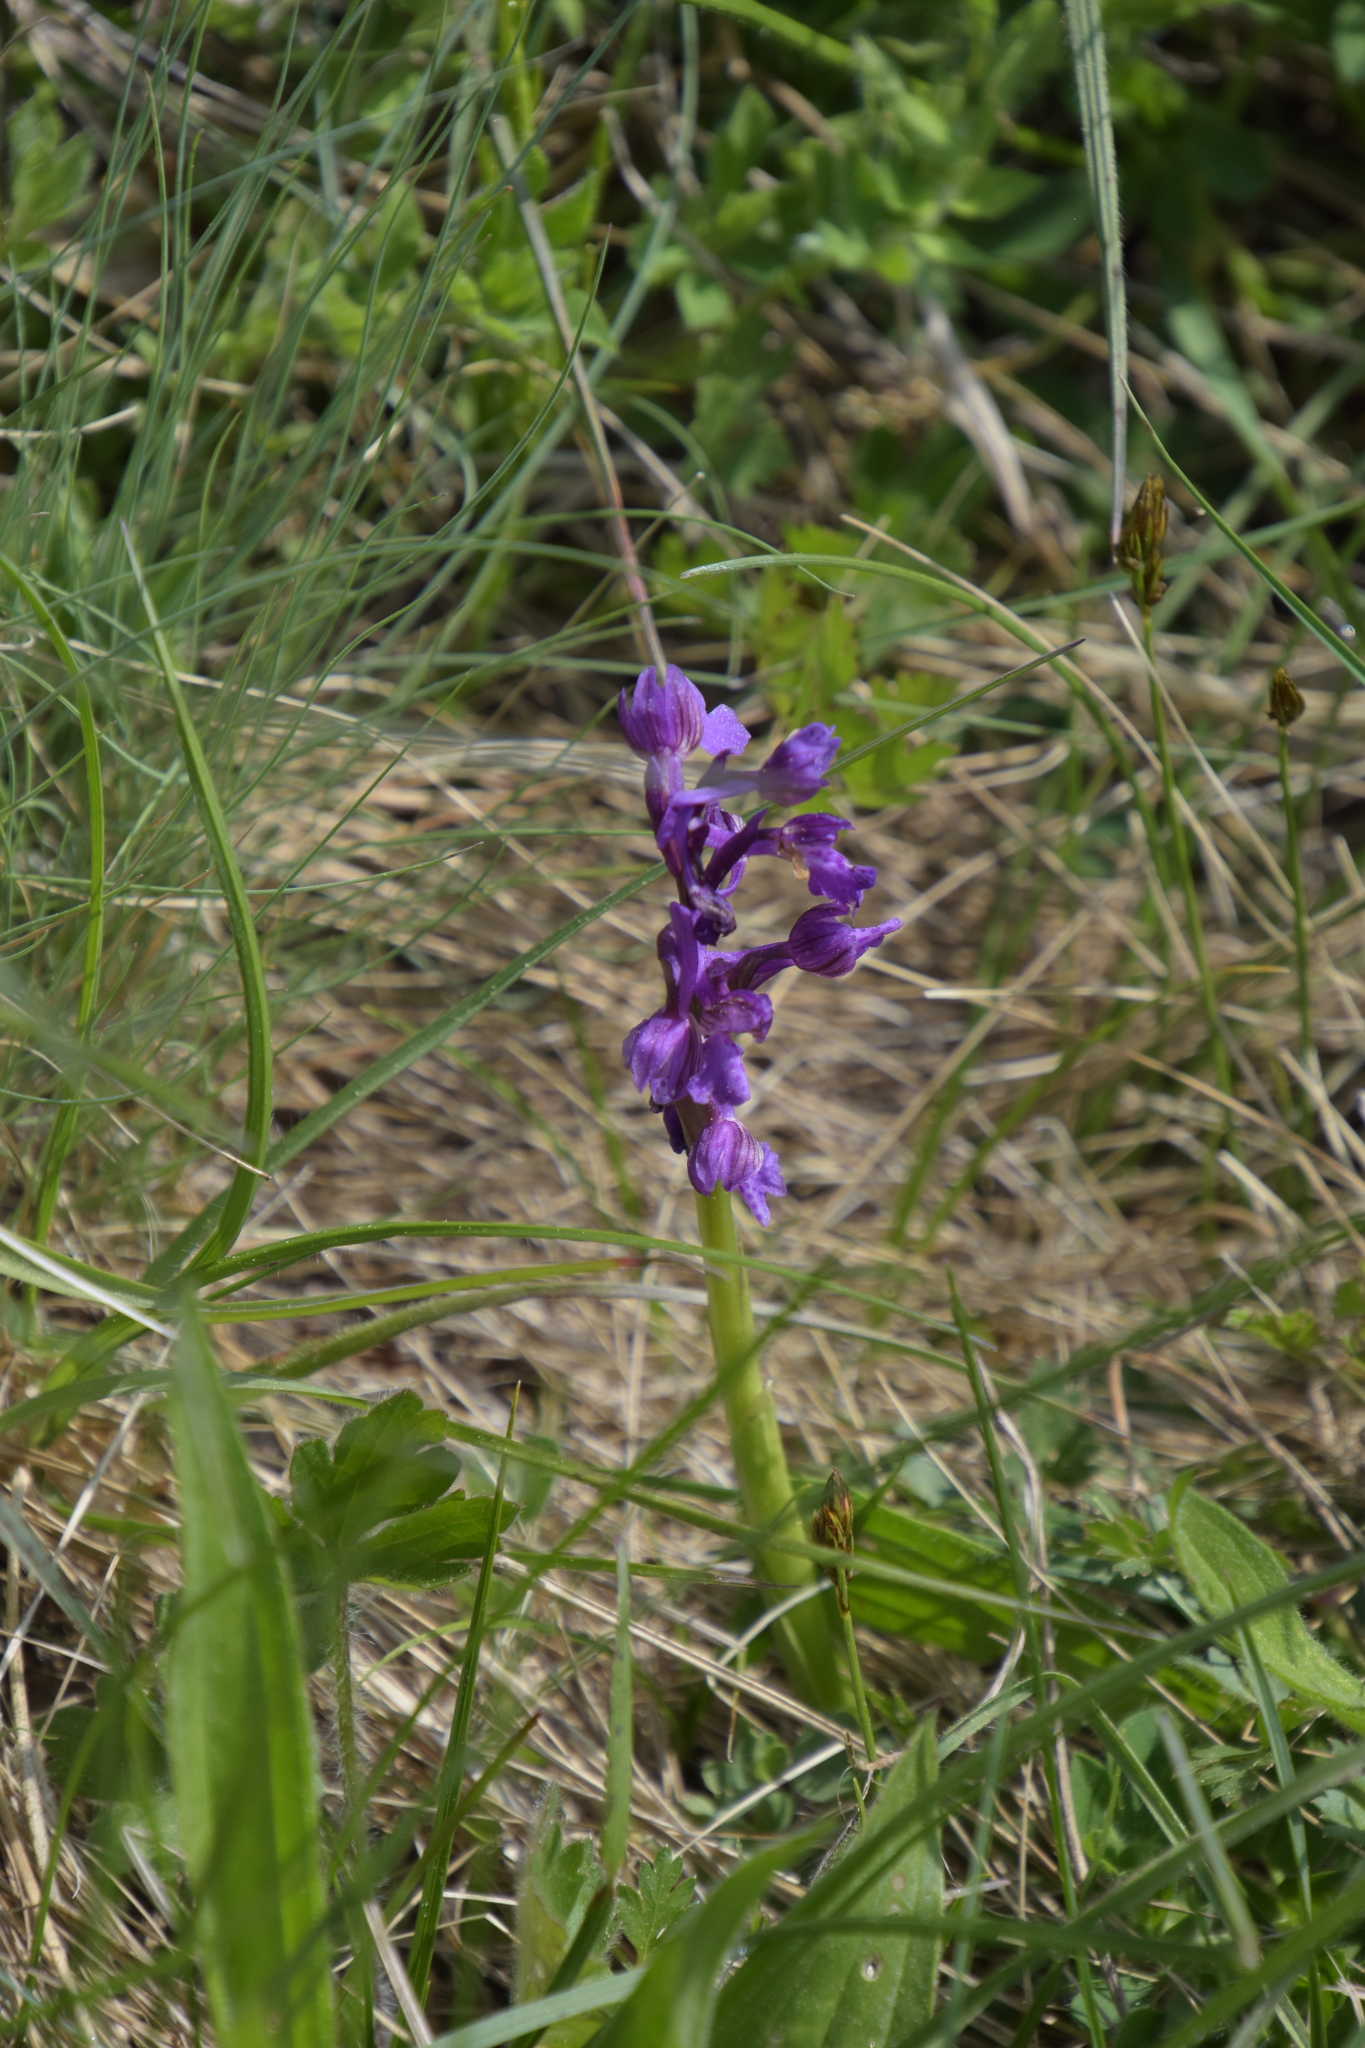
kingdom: Plantae
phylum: Tracheophyta
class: Liliopsida
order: Asparagales
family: Orchidaceae
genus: Anacamptis
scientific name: Anacamptis morio
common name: Green-winged orchid
